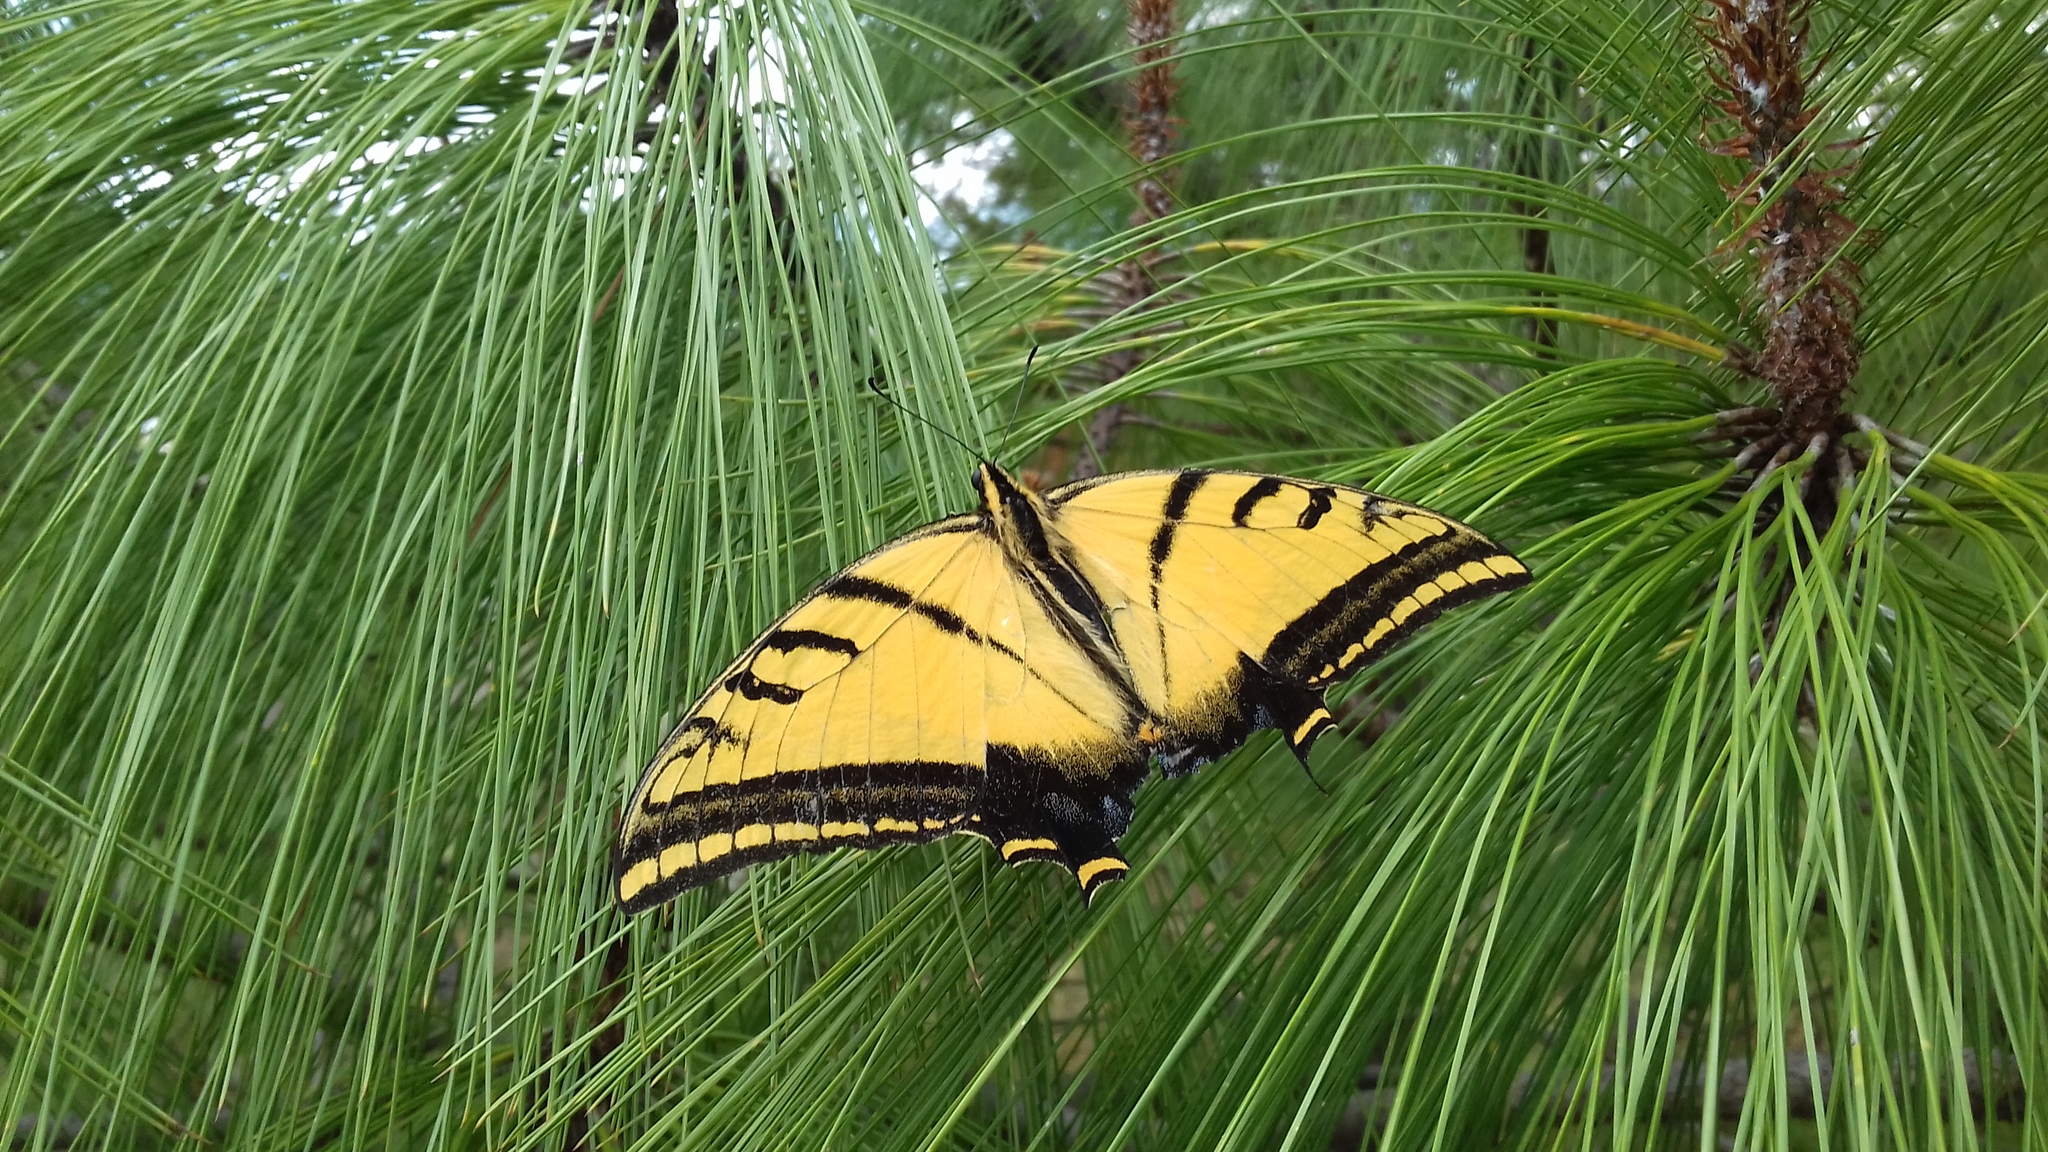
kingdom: Animalia
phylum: Arthropoda
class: Insecta
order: Lepidoptera
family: Papilionidae
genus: Papilio
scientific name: Papilio multicaudata
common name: Two-tailed tiger swallowtail
